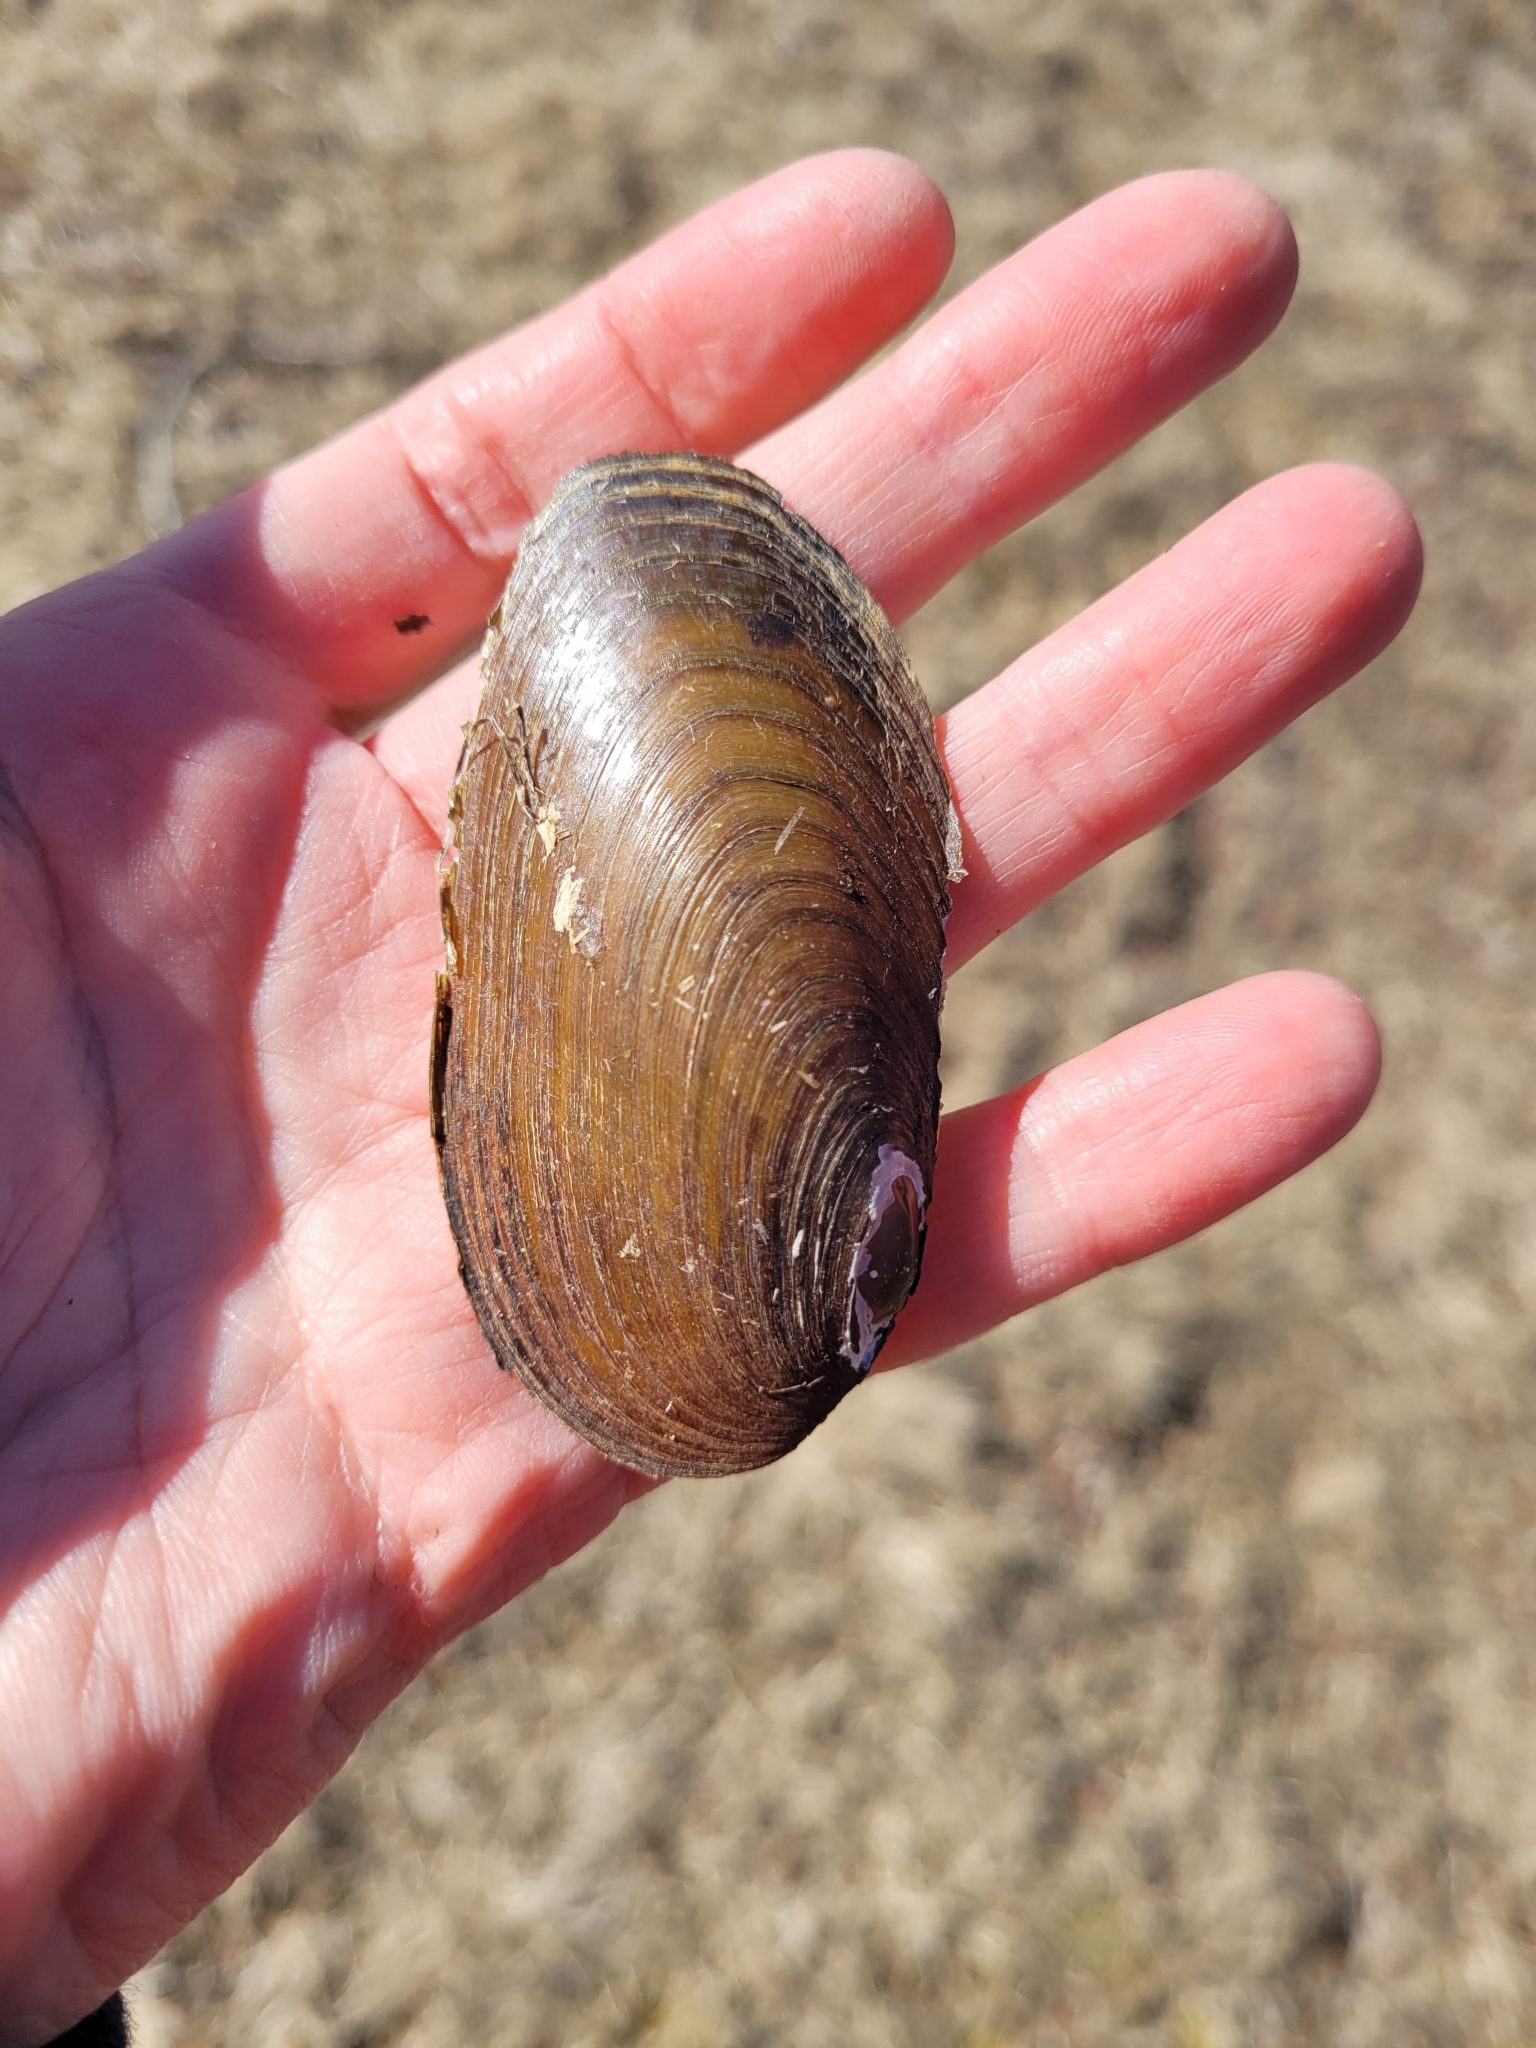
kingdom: Animalia
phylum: Mollusca
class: Bivalvia
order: Unionida
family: Unionidae
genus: Elliptio
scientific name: Elliptio complanata
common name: Eastern elliptio
